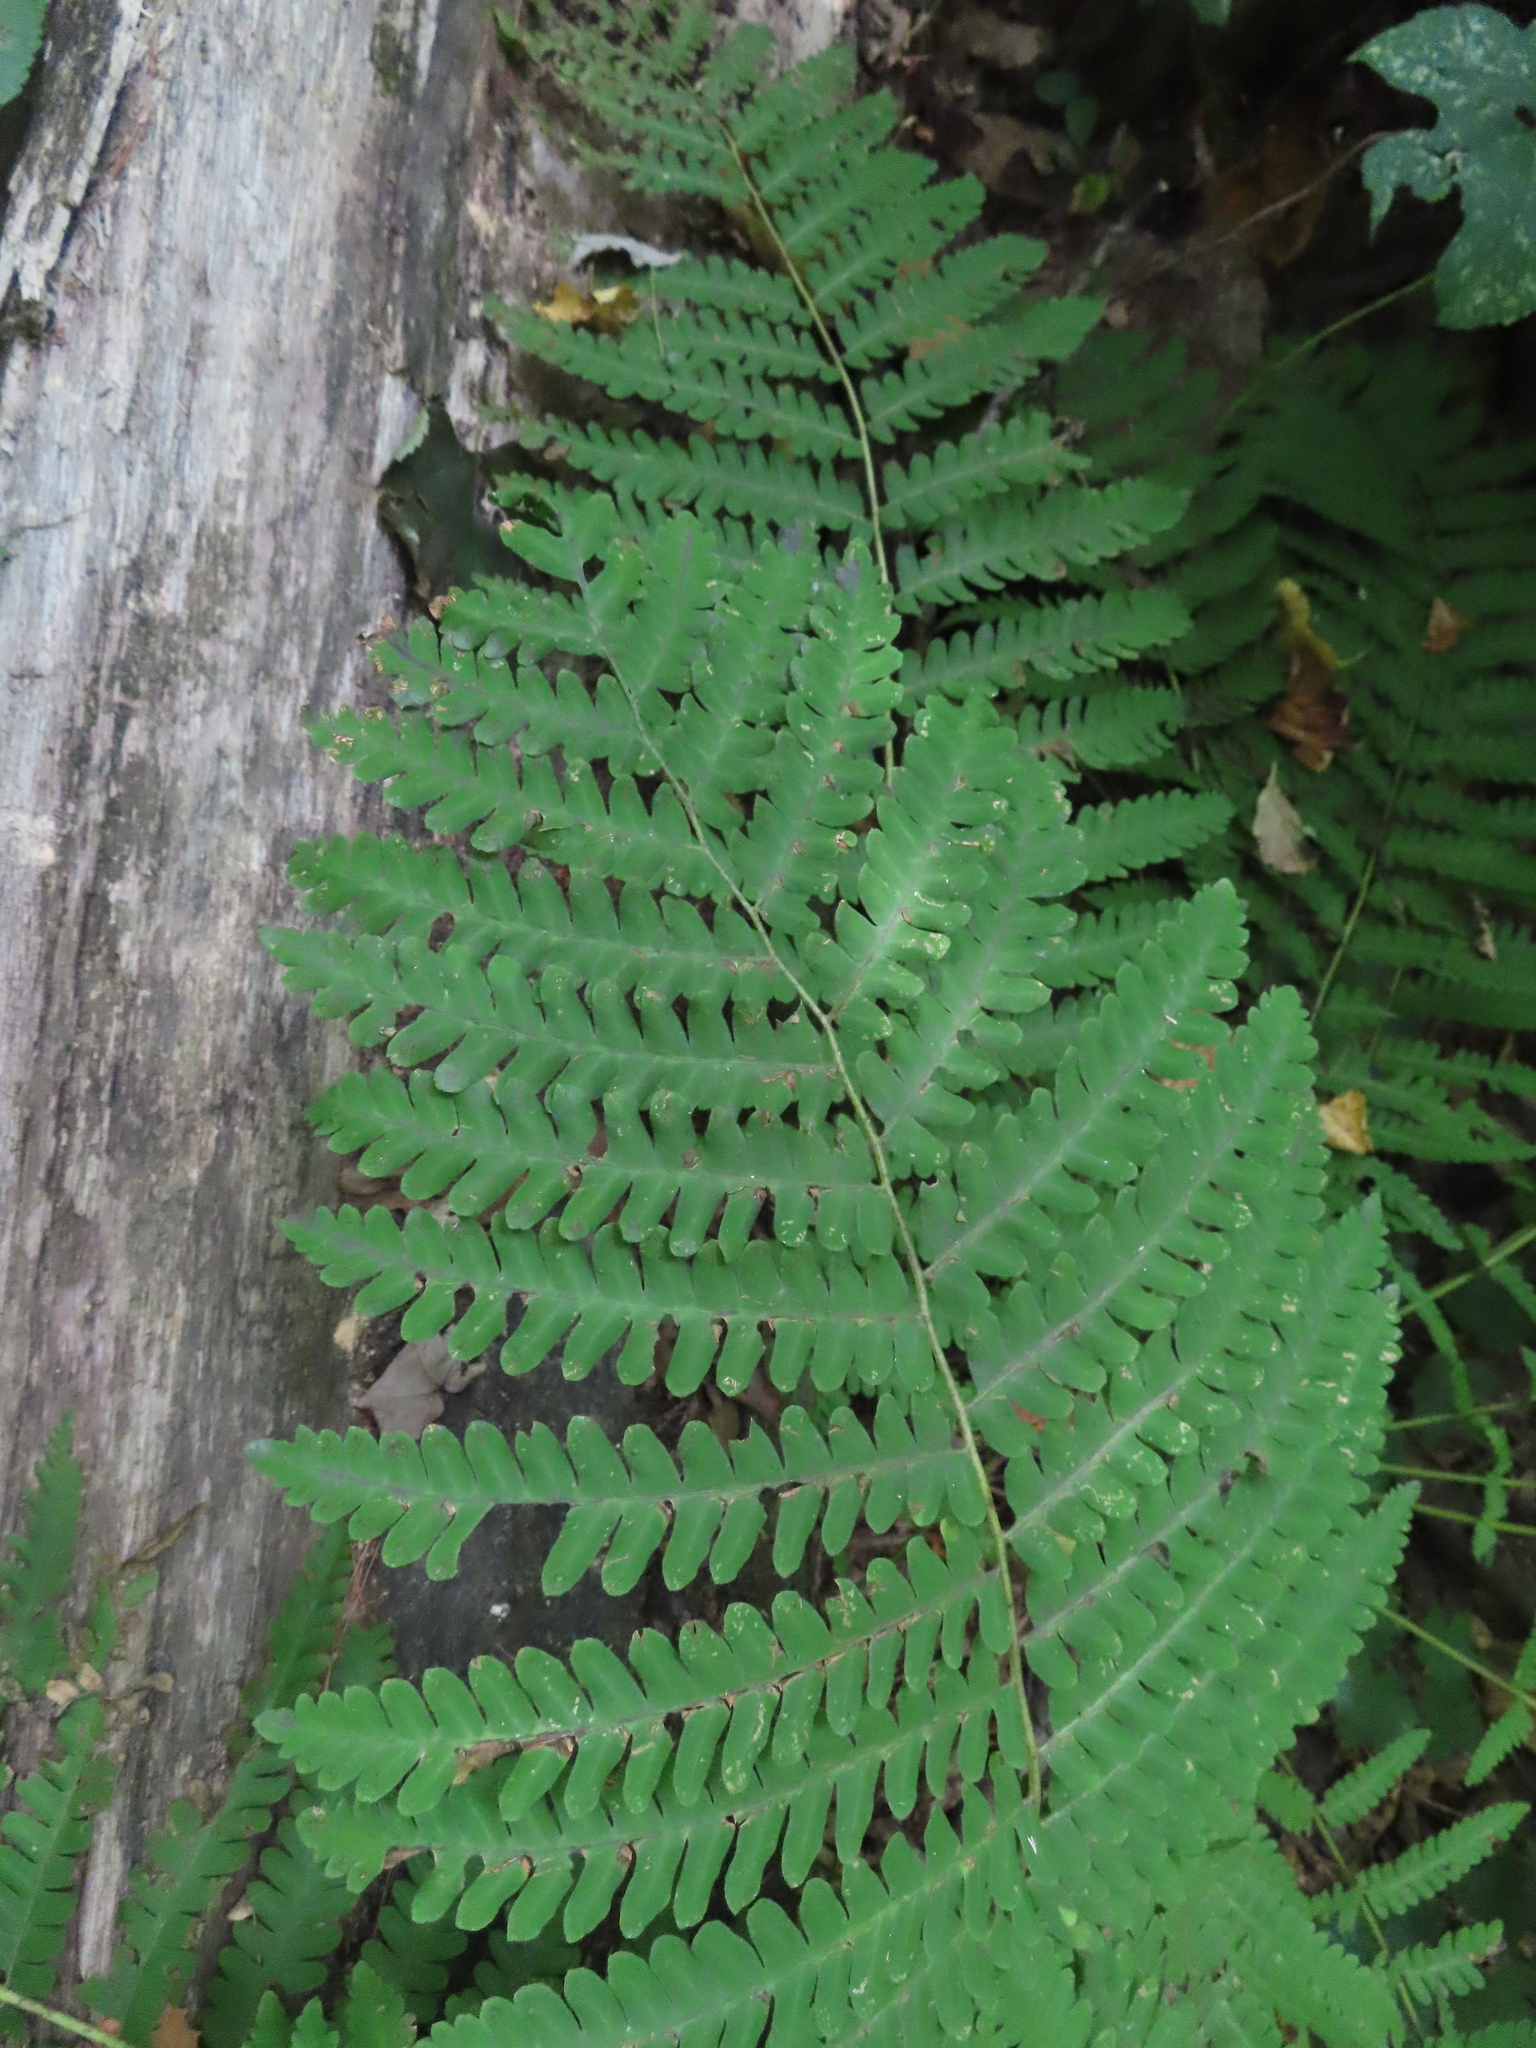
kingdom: Plantae
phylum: Tracheophyta
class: Polypodiopsida
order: Osmundales
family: Osmundaceae
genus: Claytosmunda
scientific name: Claytosmunda claytoniana
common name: Clayton's fern
